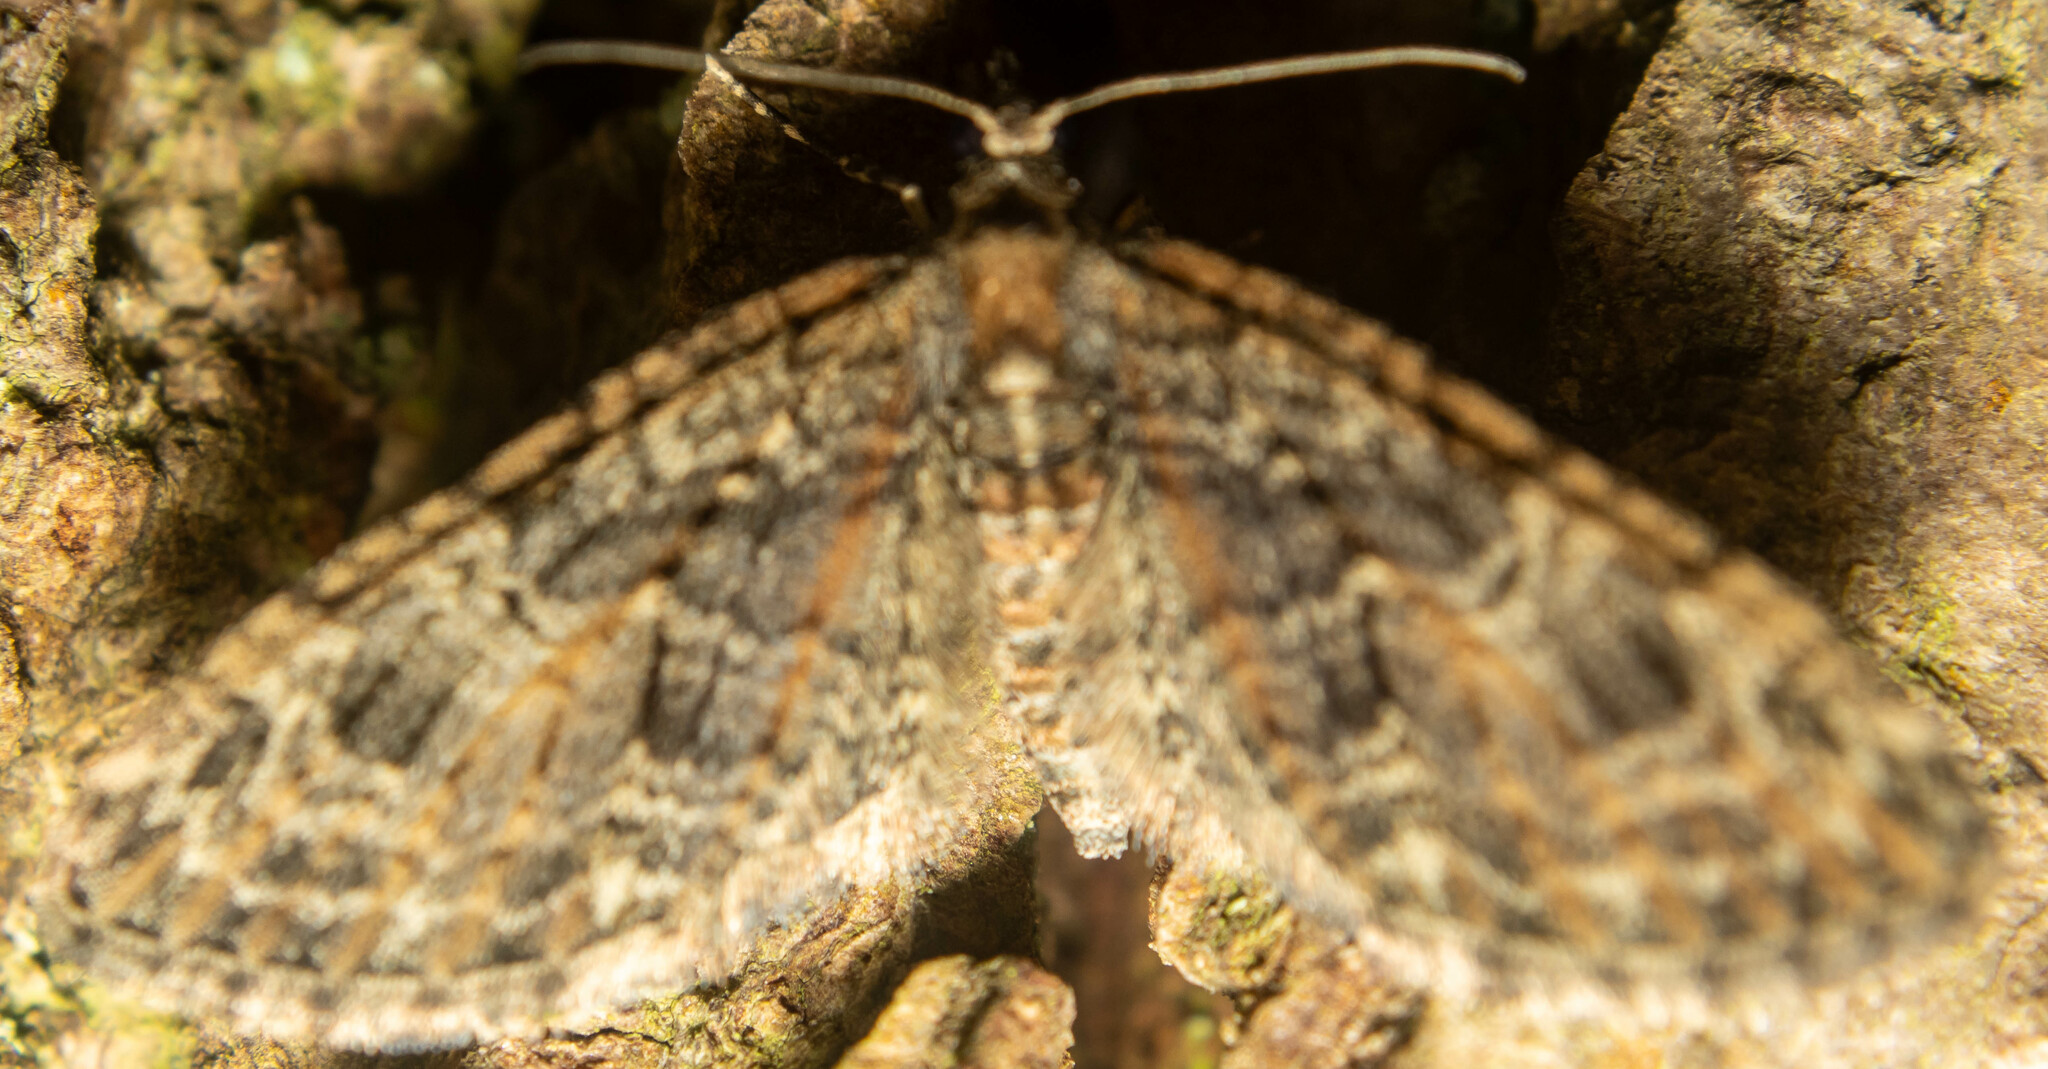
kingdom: Animalia
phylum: Arthropoda
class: Insecta
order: Lepidoptera
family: Geometridae
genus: Eupithecia
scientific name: Eupithecia abbreviata
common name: Brindled pug
